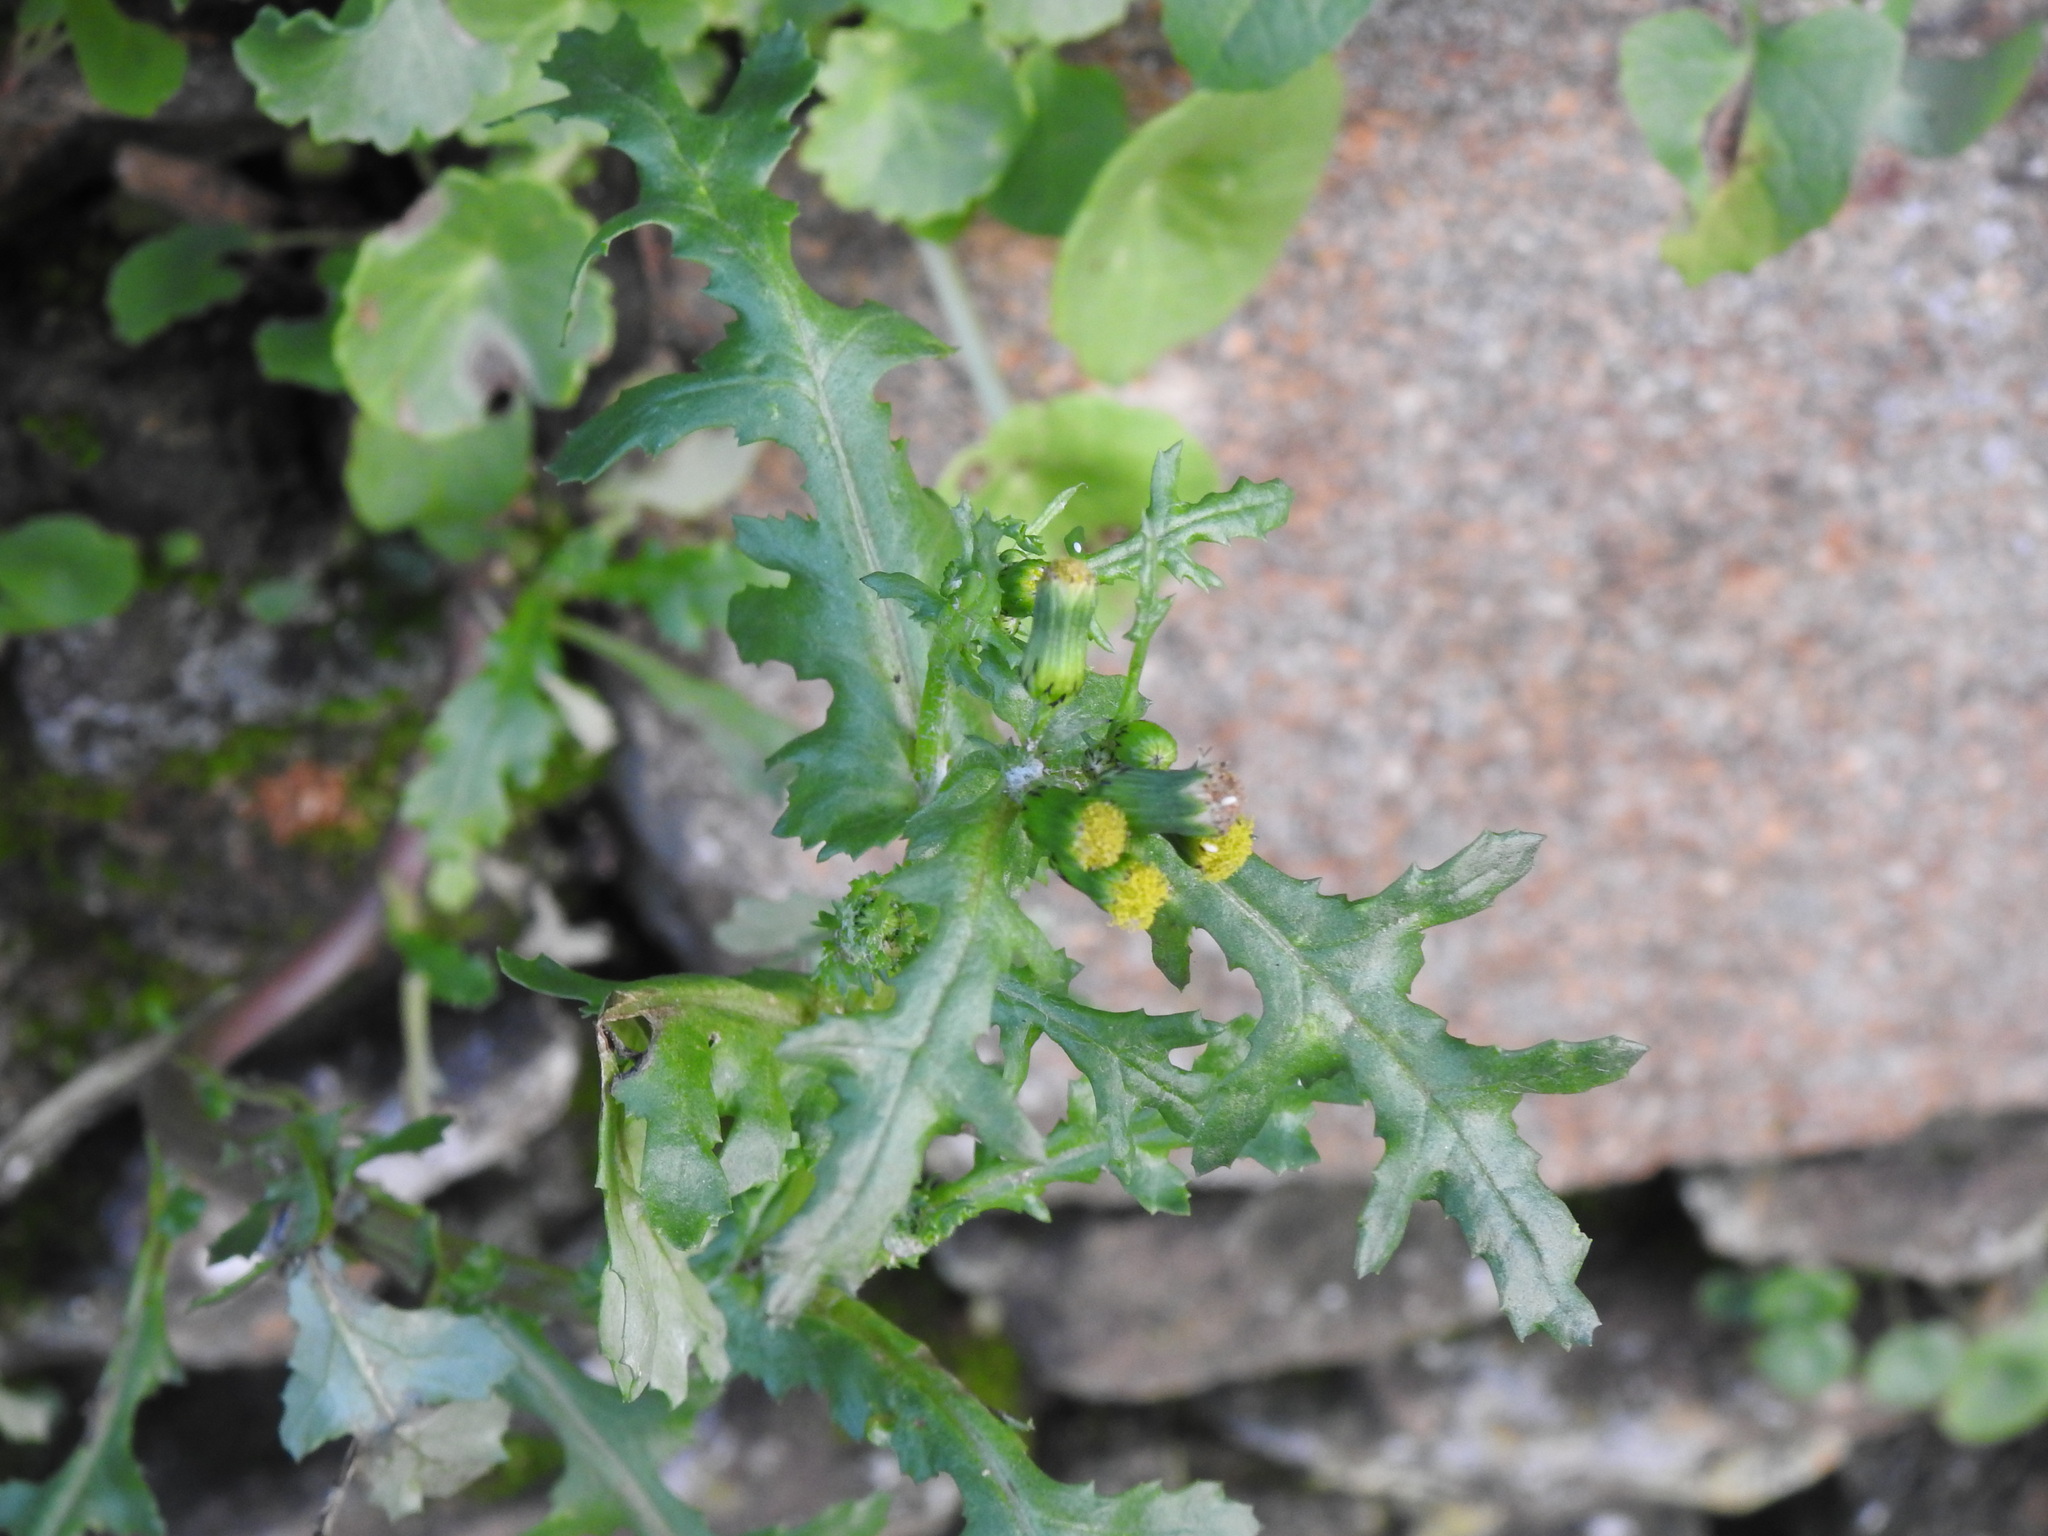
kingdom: Plantae
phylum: Tracheophyta
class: Magnoliopsida
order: Asterales
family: Asteraceae
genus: Senecio
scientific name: Senecio vulgaris
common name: Old-man-in-the-spring
